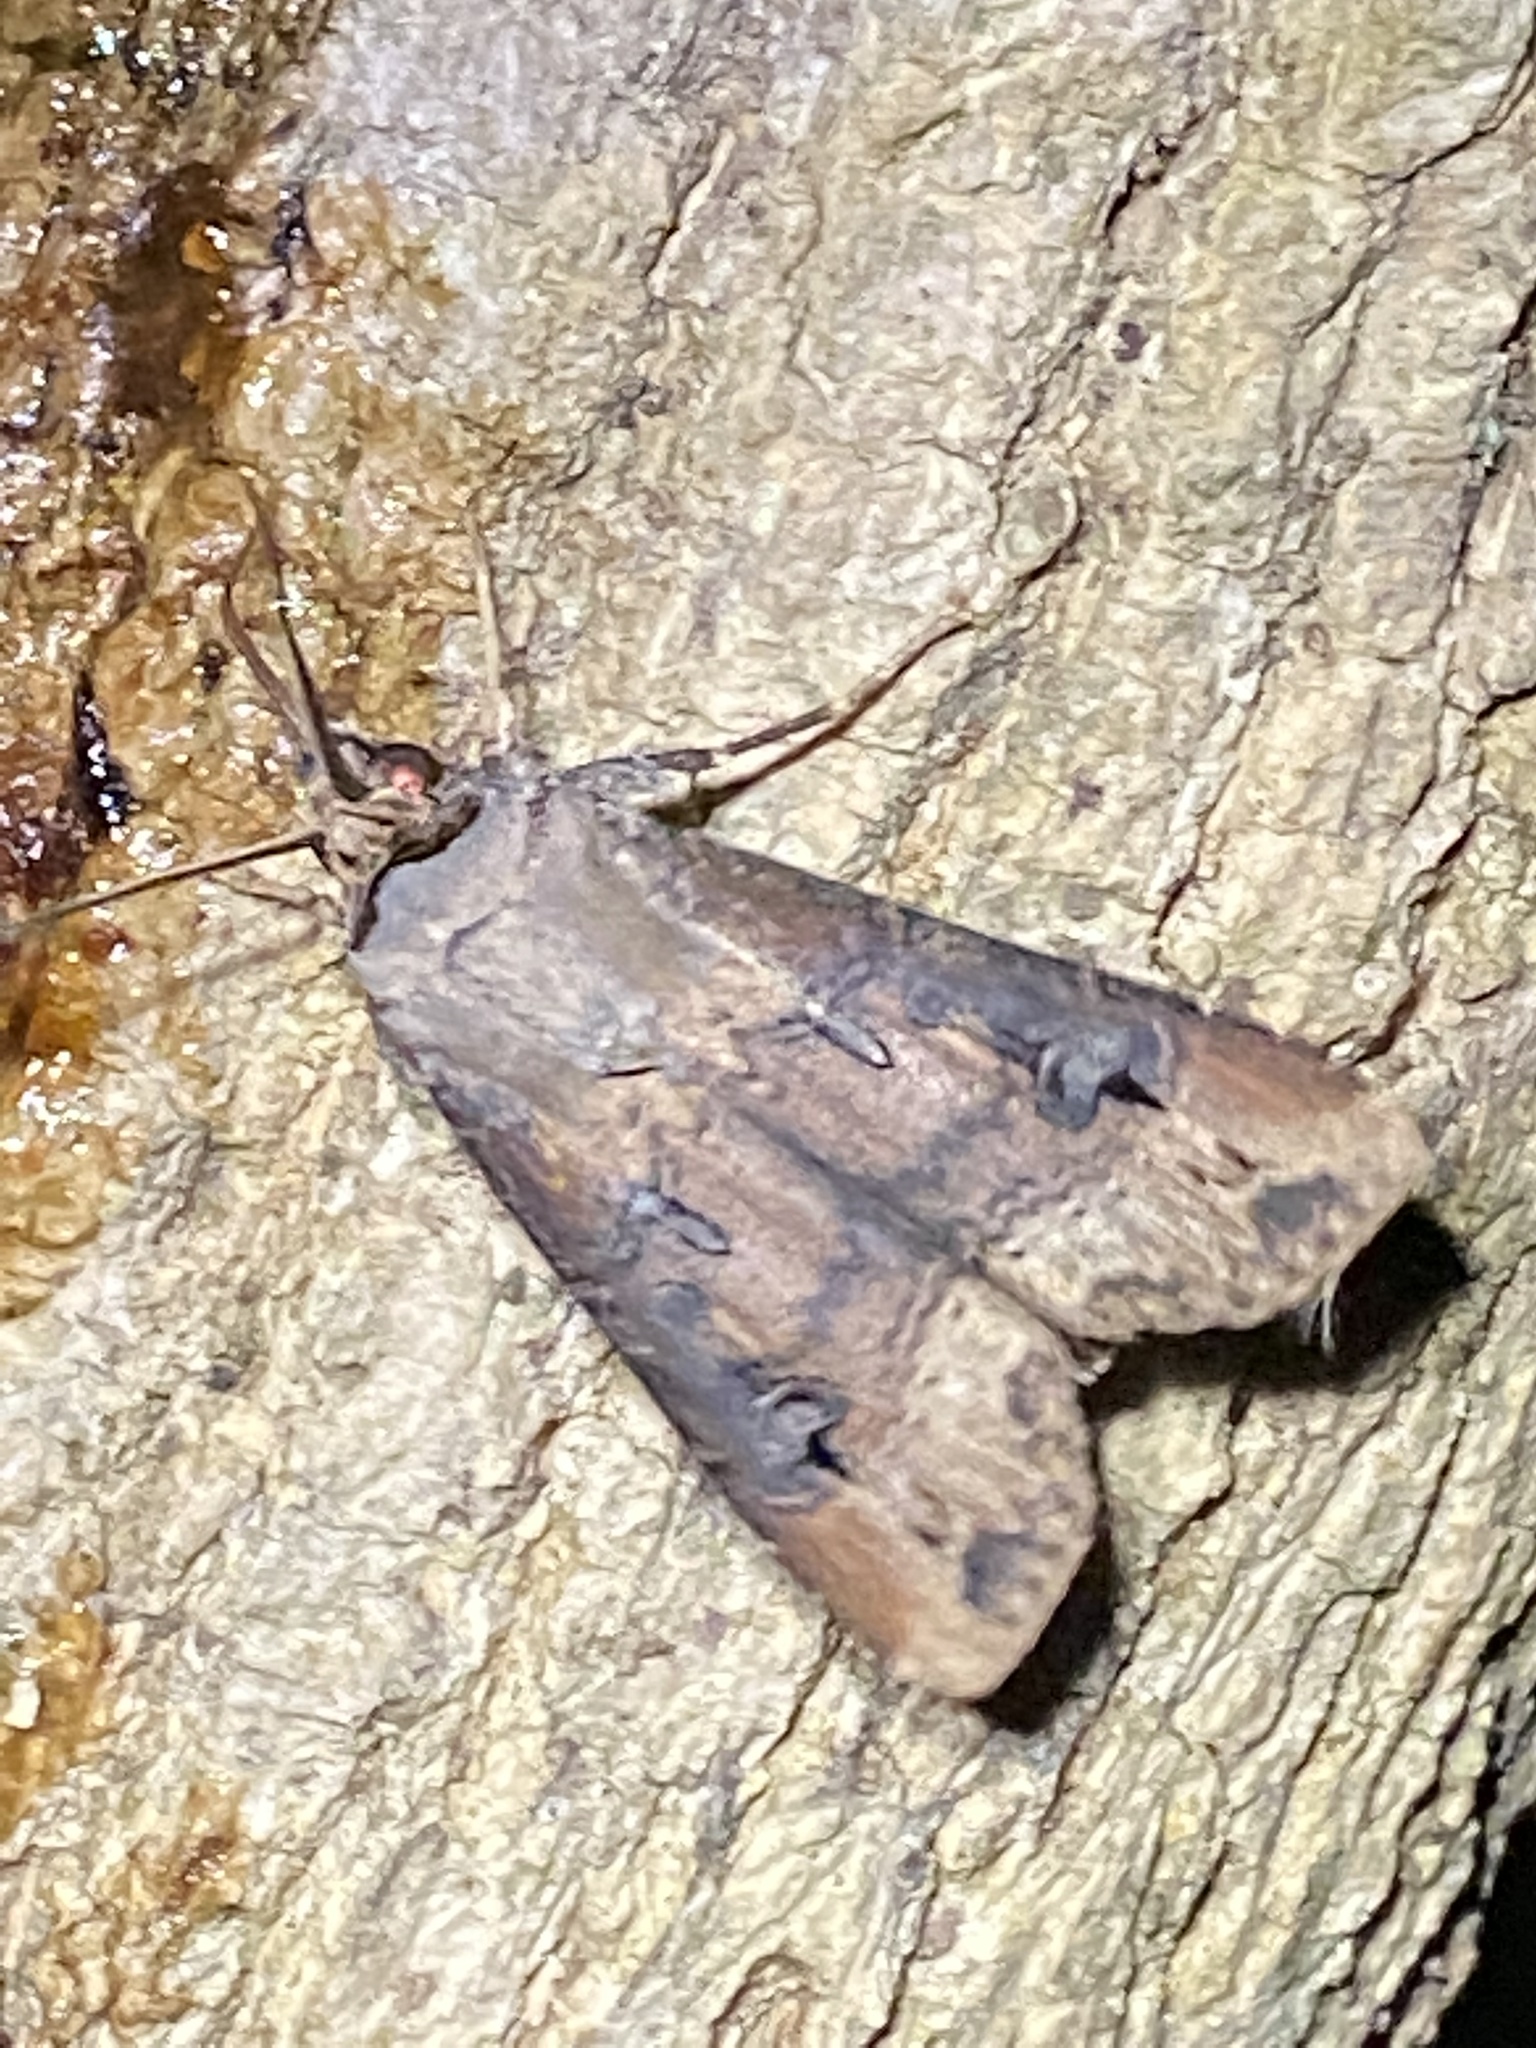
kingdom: Animalia
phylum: Arthropoda
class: Insecta
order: Lepidoptera
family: Noctuidae
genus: Agrotis
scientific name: Agrotis ipsilon
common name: Dark sword-grass
